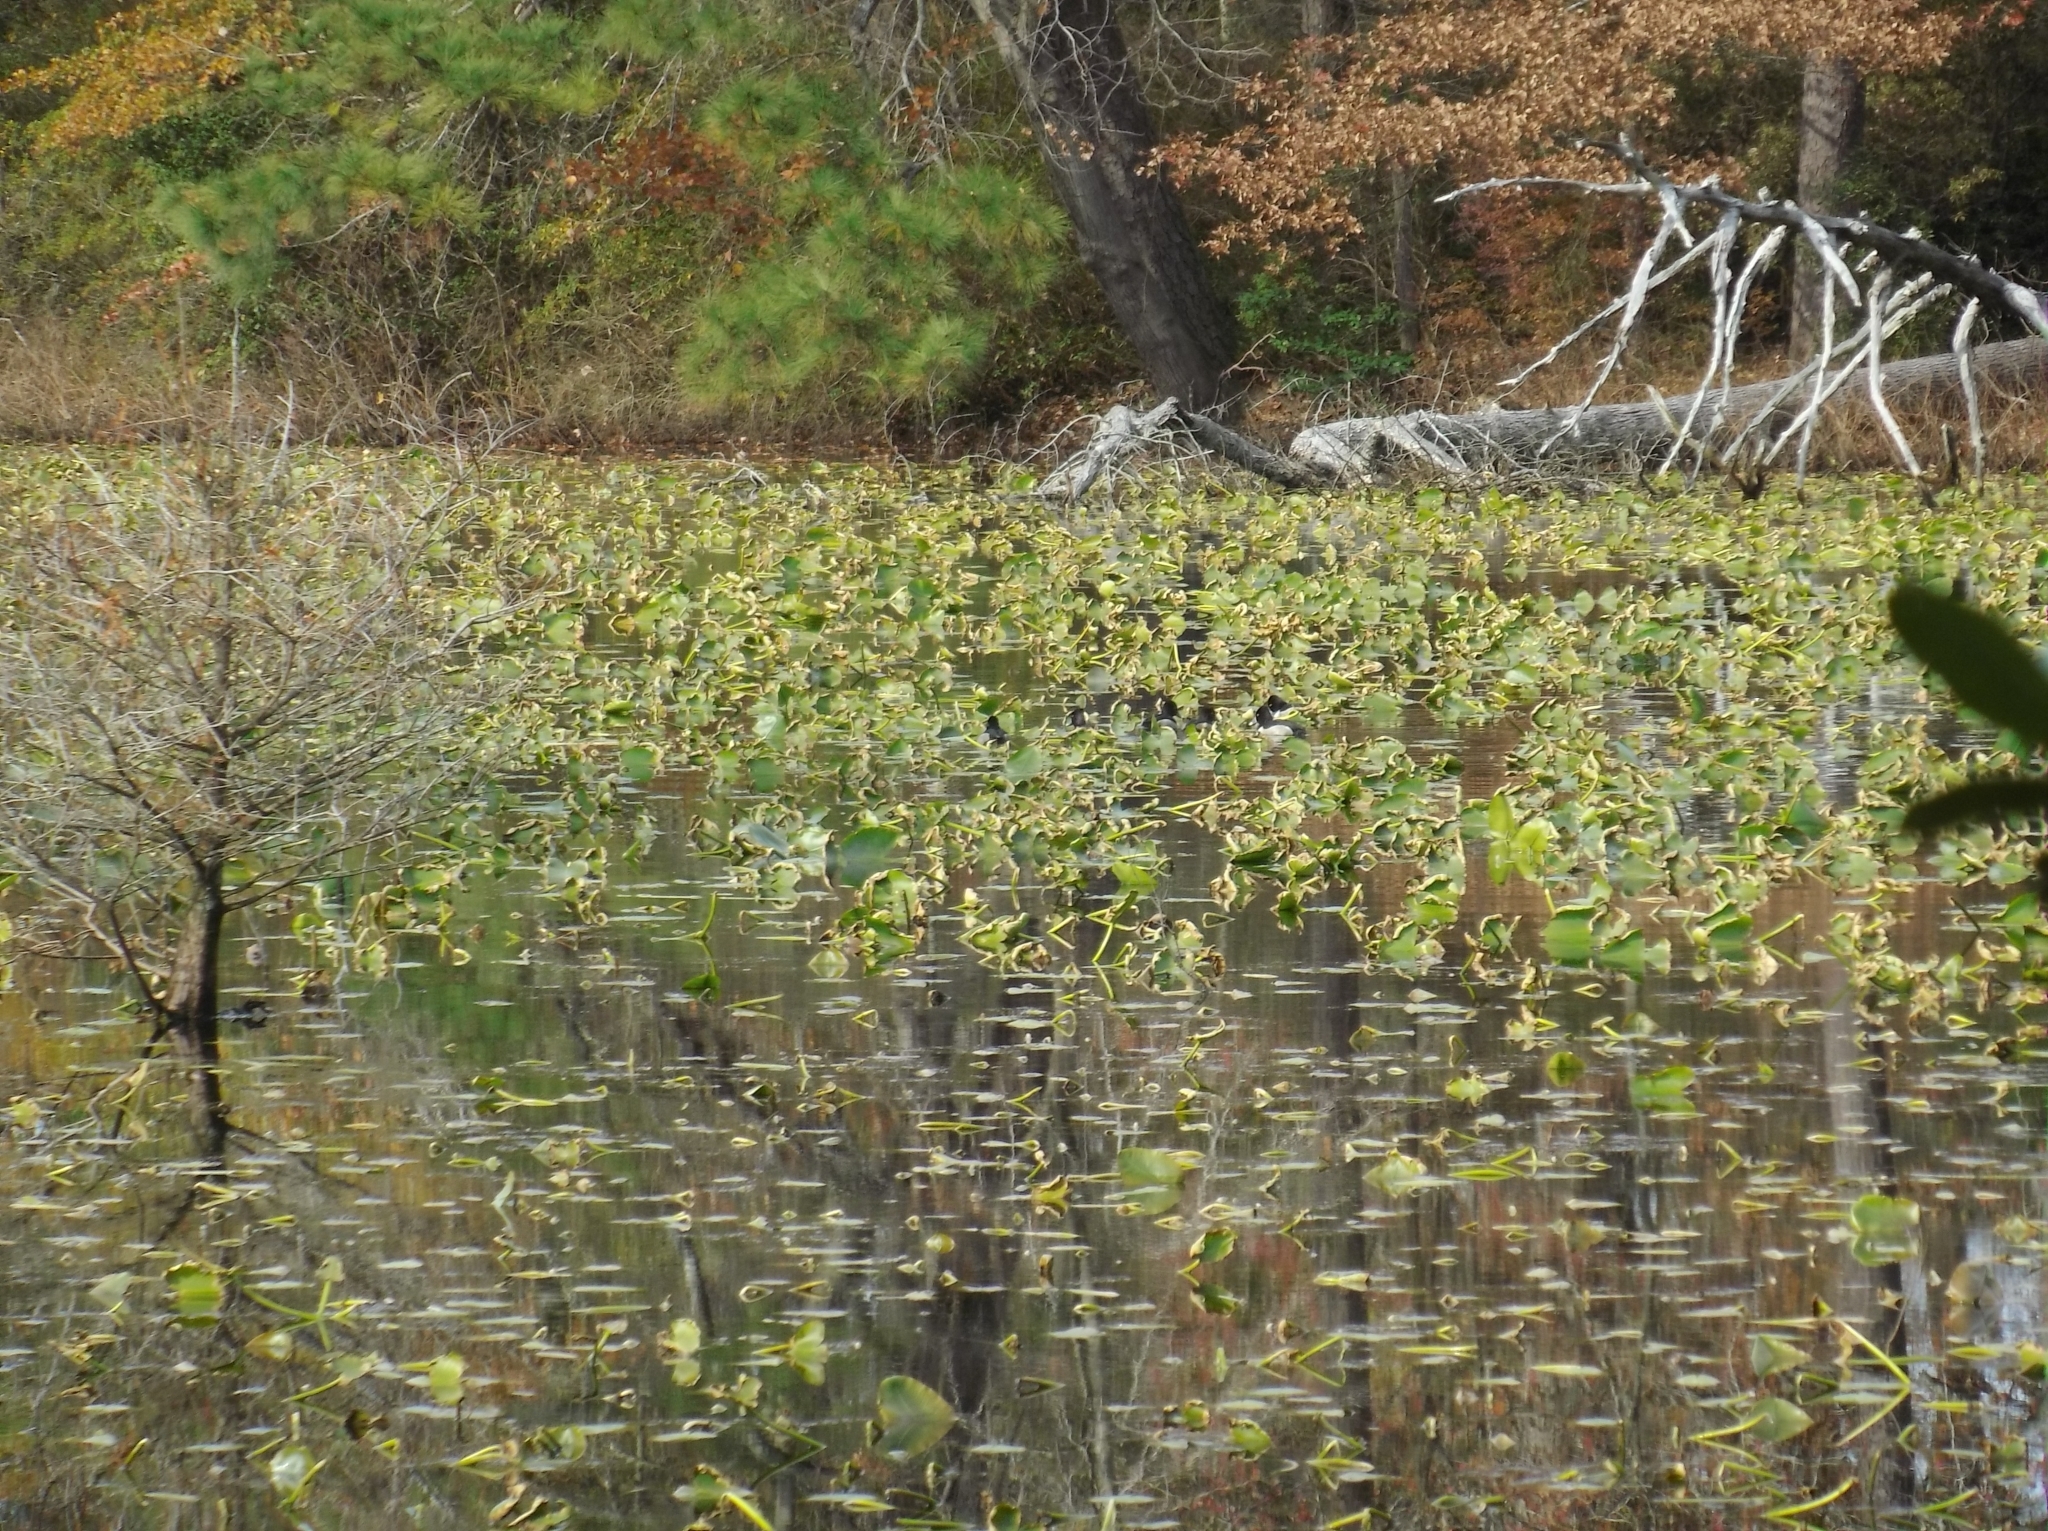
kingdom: Animalia
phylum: Chordata
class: Aves
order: Anseriformes
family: Anatidae
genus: Aythya
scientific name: Aythya collaris
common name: Ring-necked duck
